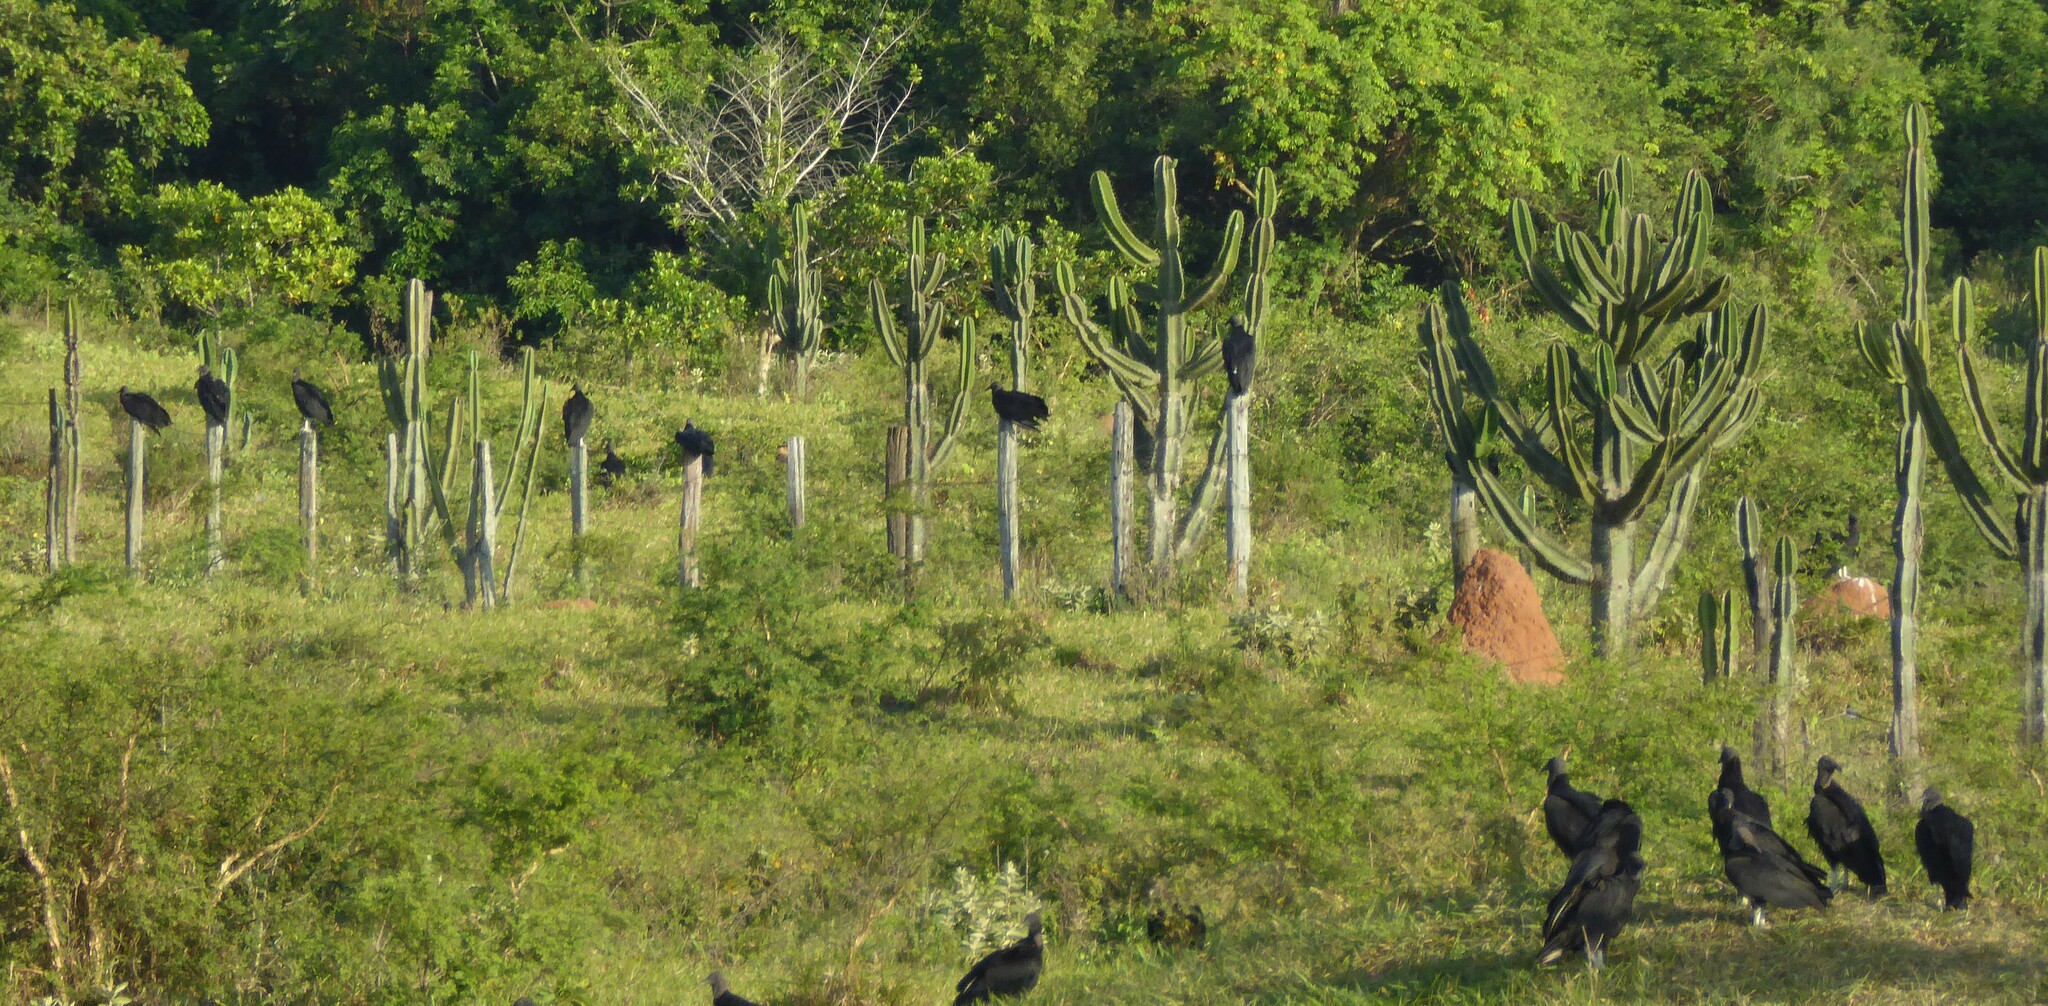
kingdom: Plantae
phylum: Tracheophyta
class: Magnoliopsida
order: Caryophyllales
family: Cactaceae
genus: Neoraimondia
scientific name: Neoraimondia herzogiana
